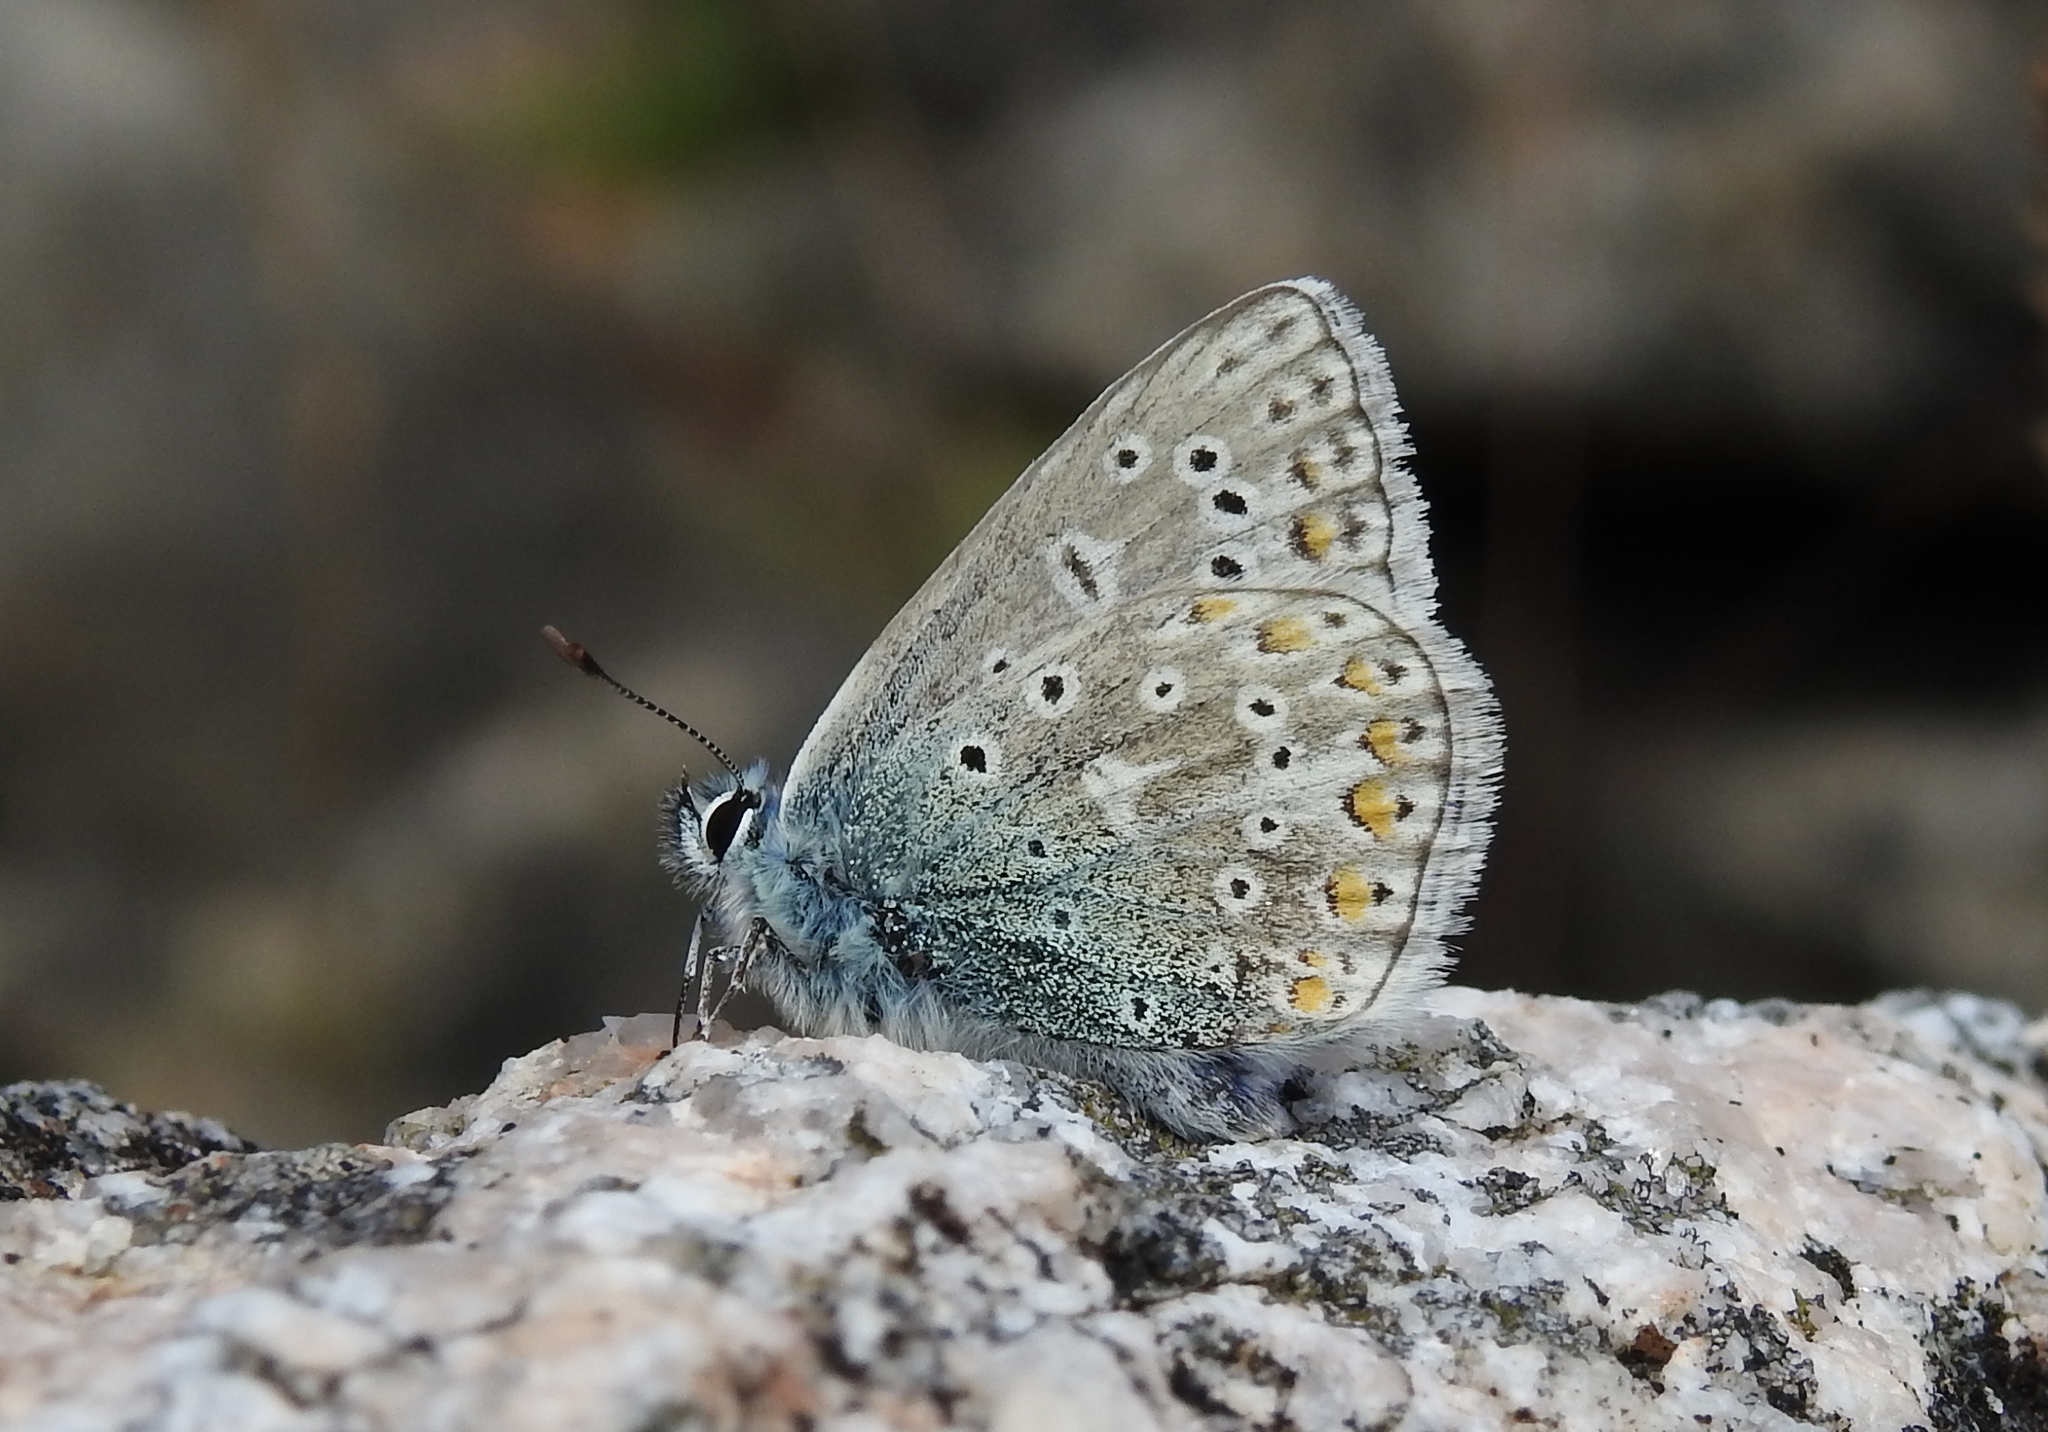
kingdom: Animalia
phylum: Arthropoda
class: Insecta
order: Lepidoptera
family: Lycaenidae
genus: Polyommatus
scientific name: Polyommatus icarus
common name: Common blue
